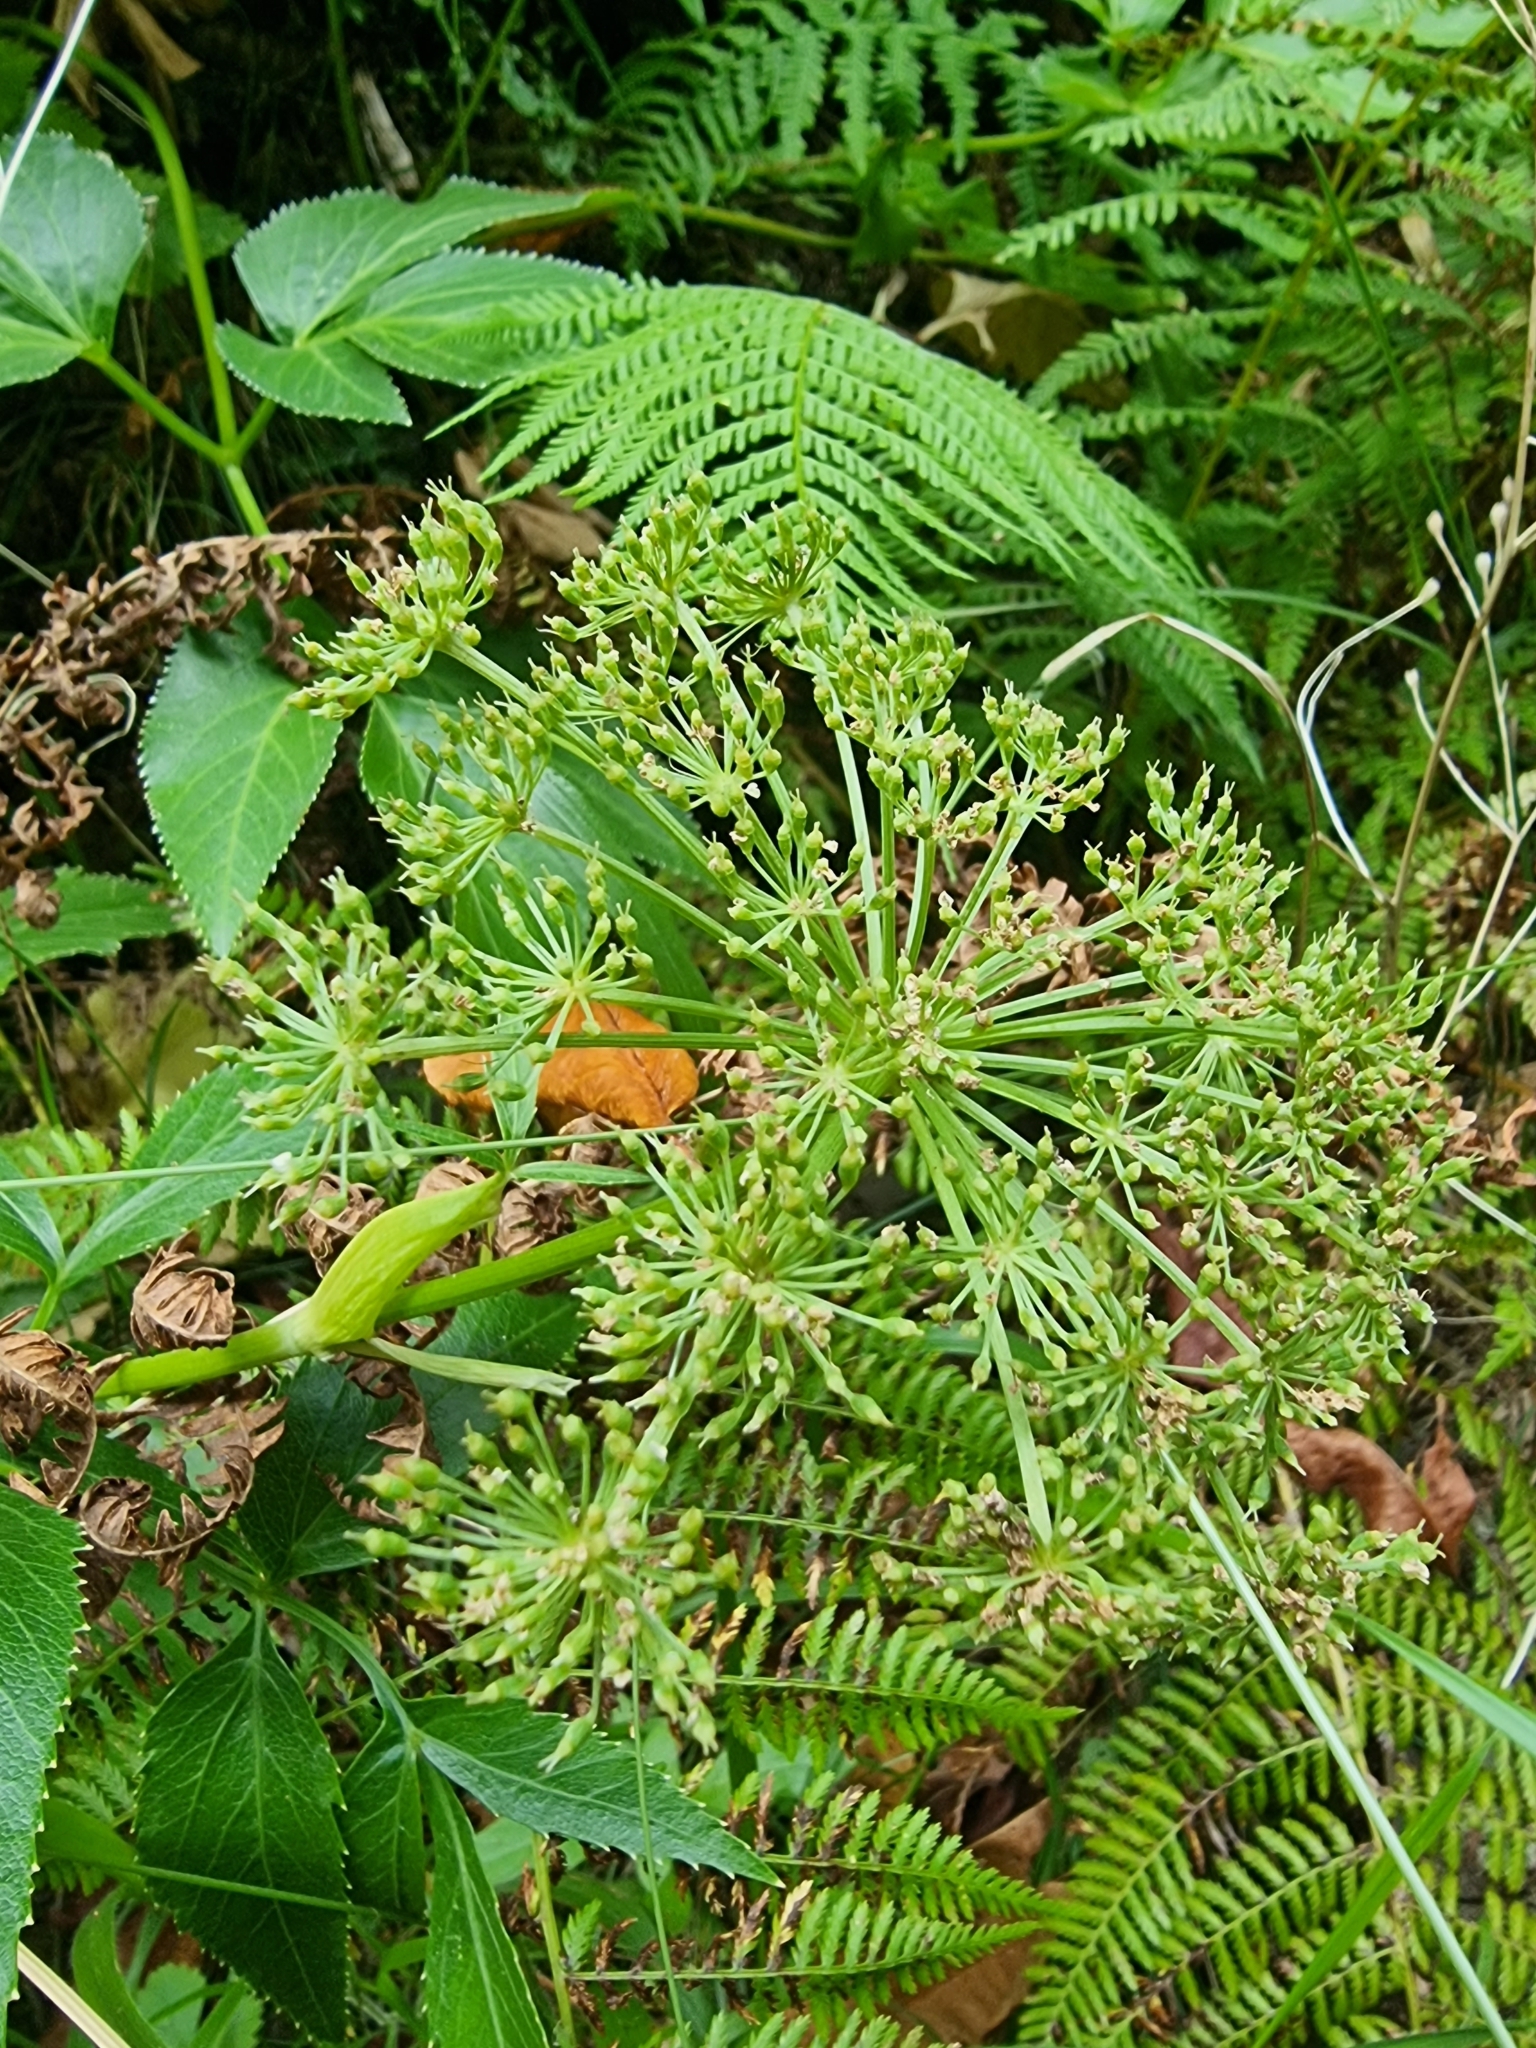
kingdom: Plantae
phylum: Tracheophyta
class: Magnoliopsida
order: Apiales
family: Apiaceae
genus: Imperatoria
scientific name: Imperatoria lowei
